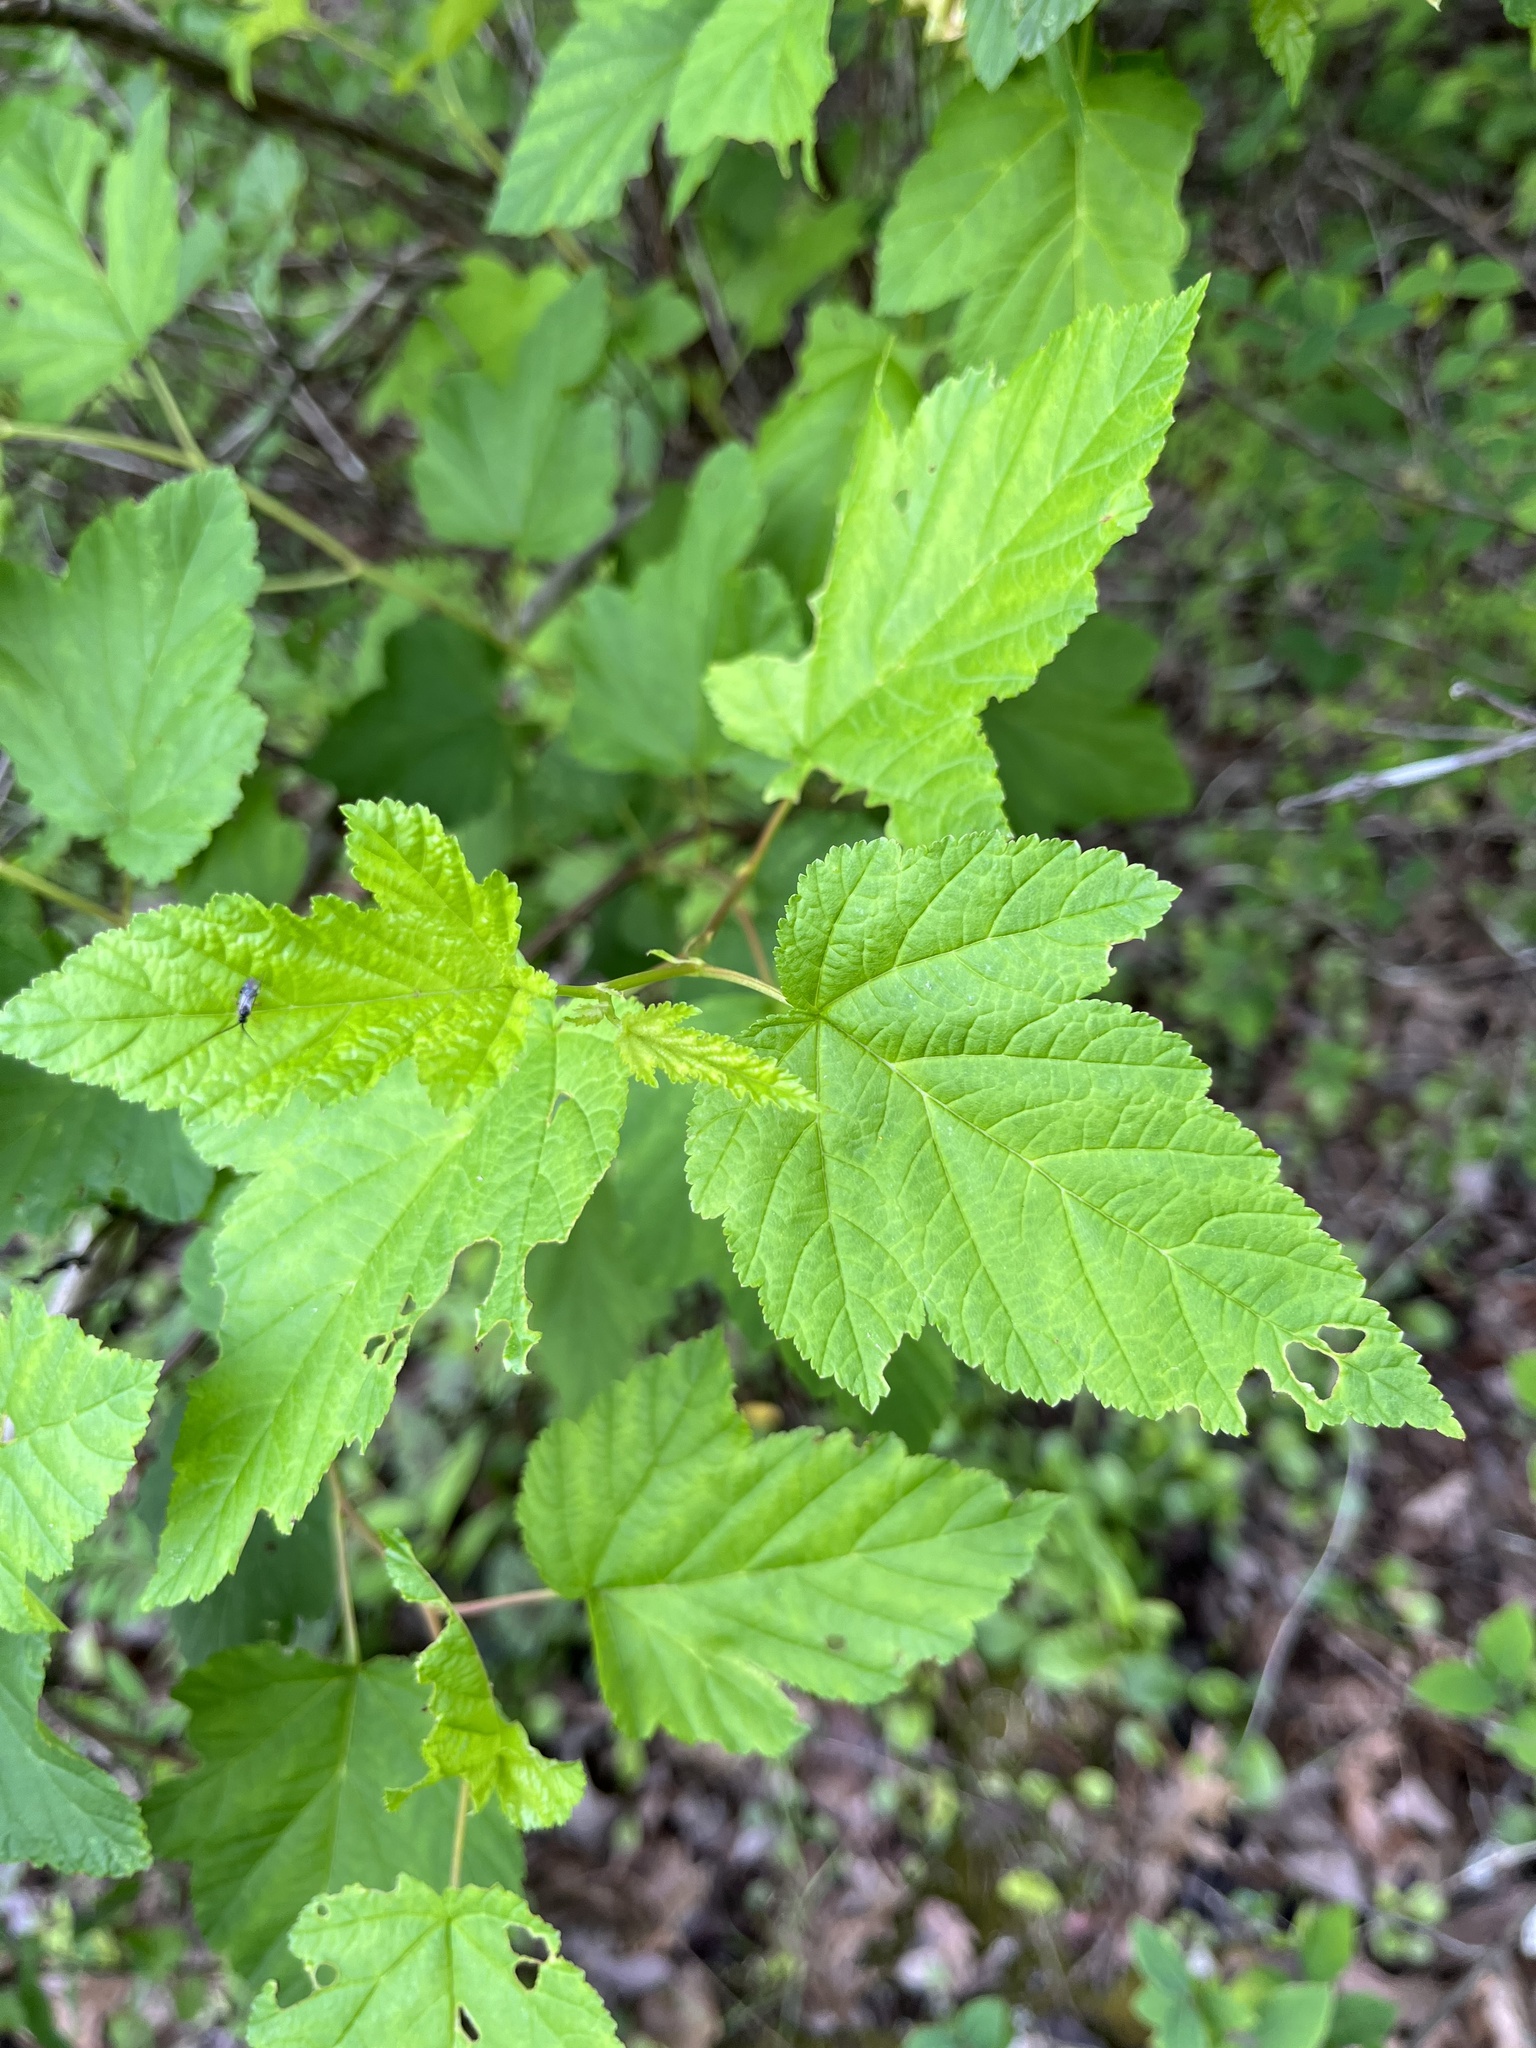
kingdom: Plantae
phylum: Tracheophyta
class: Magnoliopsida
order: Rosales
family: Rosaceae
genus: Physocarpus
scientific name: Physocarpus opulifolius
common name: Ninebark
